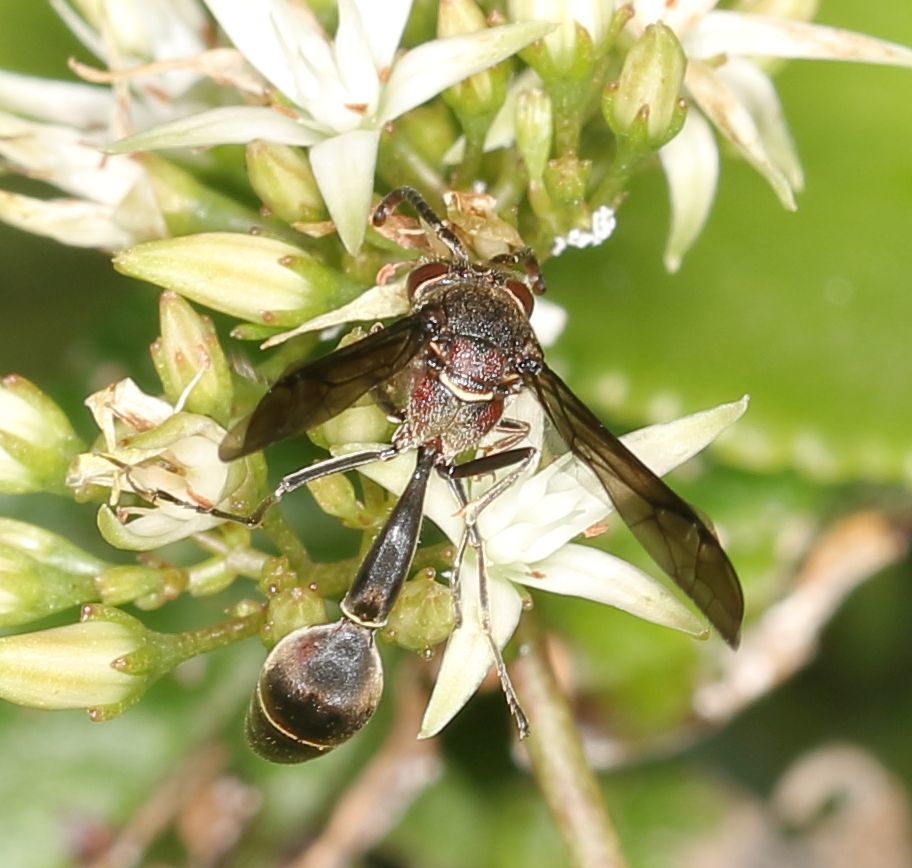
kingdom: Animalia
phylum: Arthropoda
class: Insecta
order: Hymenoptera
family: Eumenidae
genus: Afreumenes
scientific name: Afreumenes
